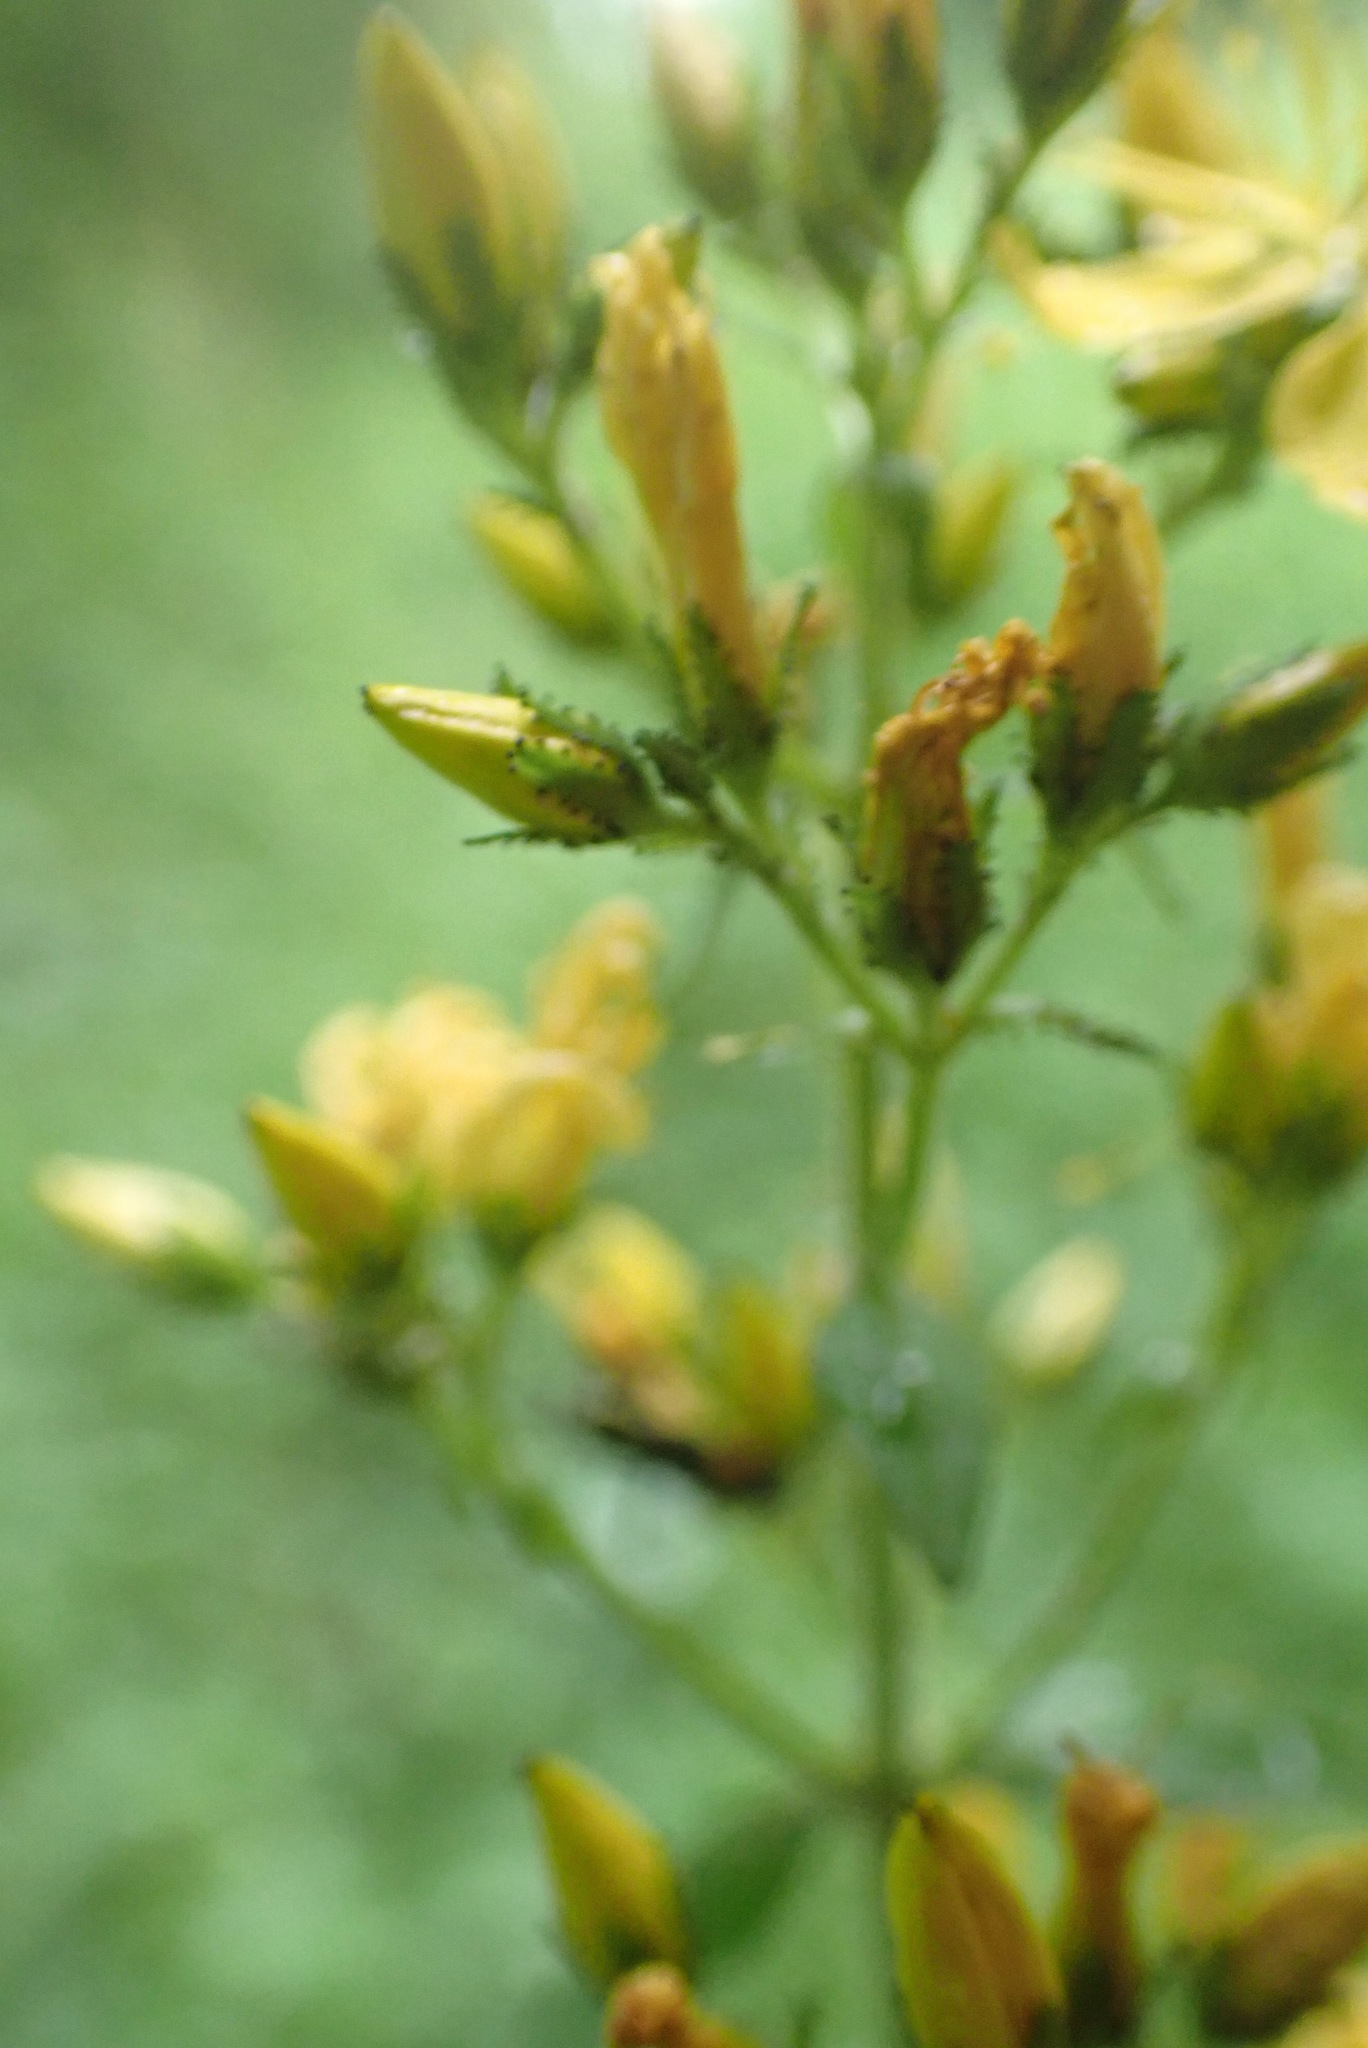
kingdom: Plantae
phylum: Tracheophyta
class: Magnoliopsida
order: Malpighiales
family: Hypericaceae
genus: Hypericum
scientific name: Hypericum hirsutum
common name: Hairy st. john's-wort
